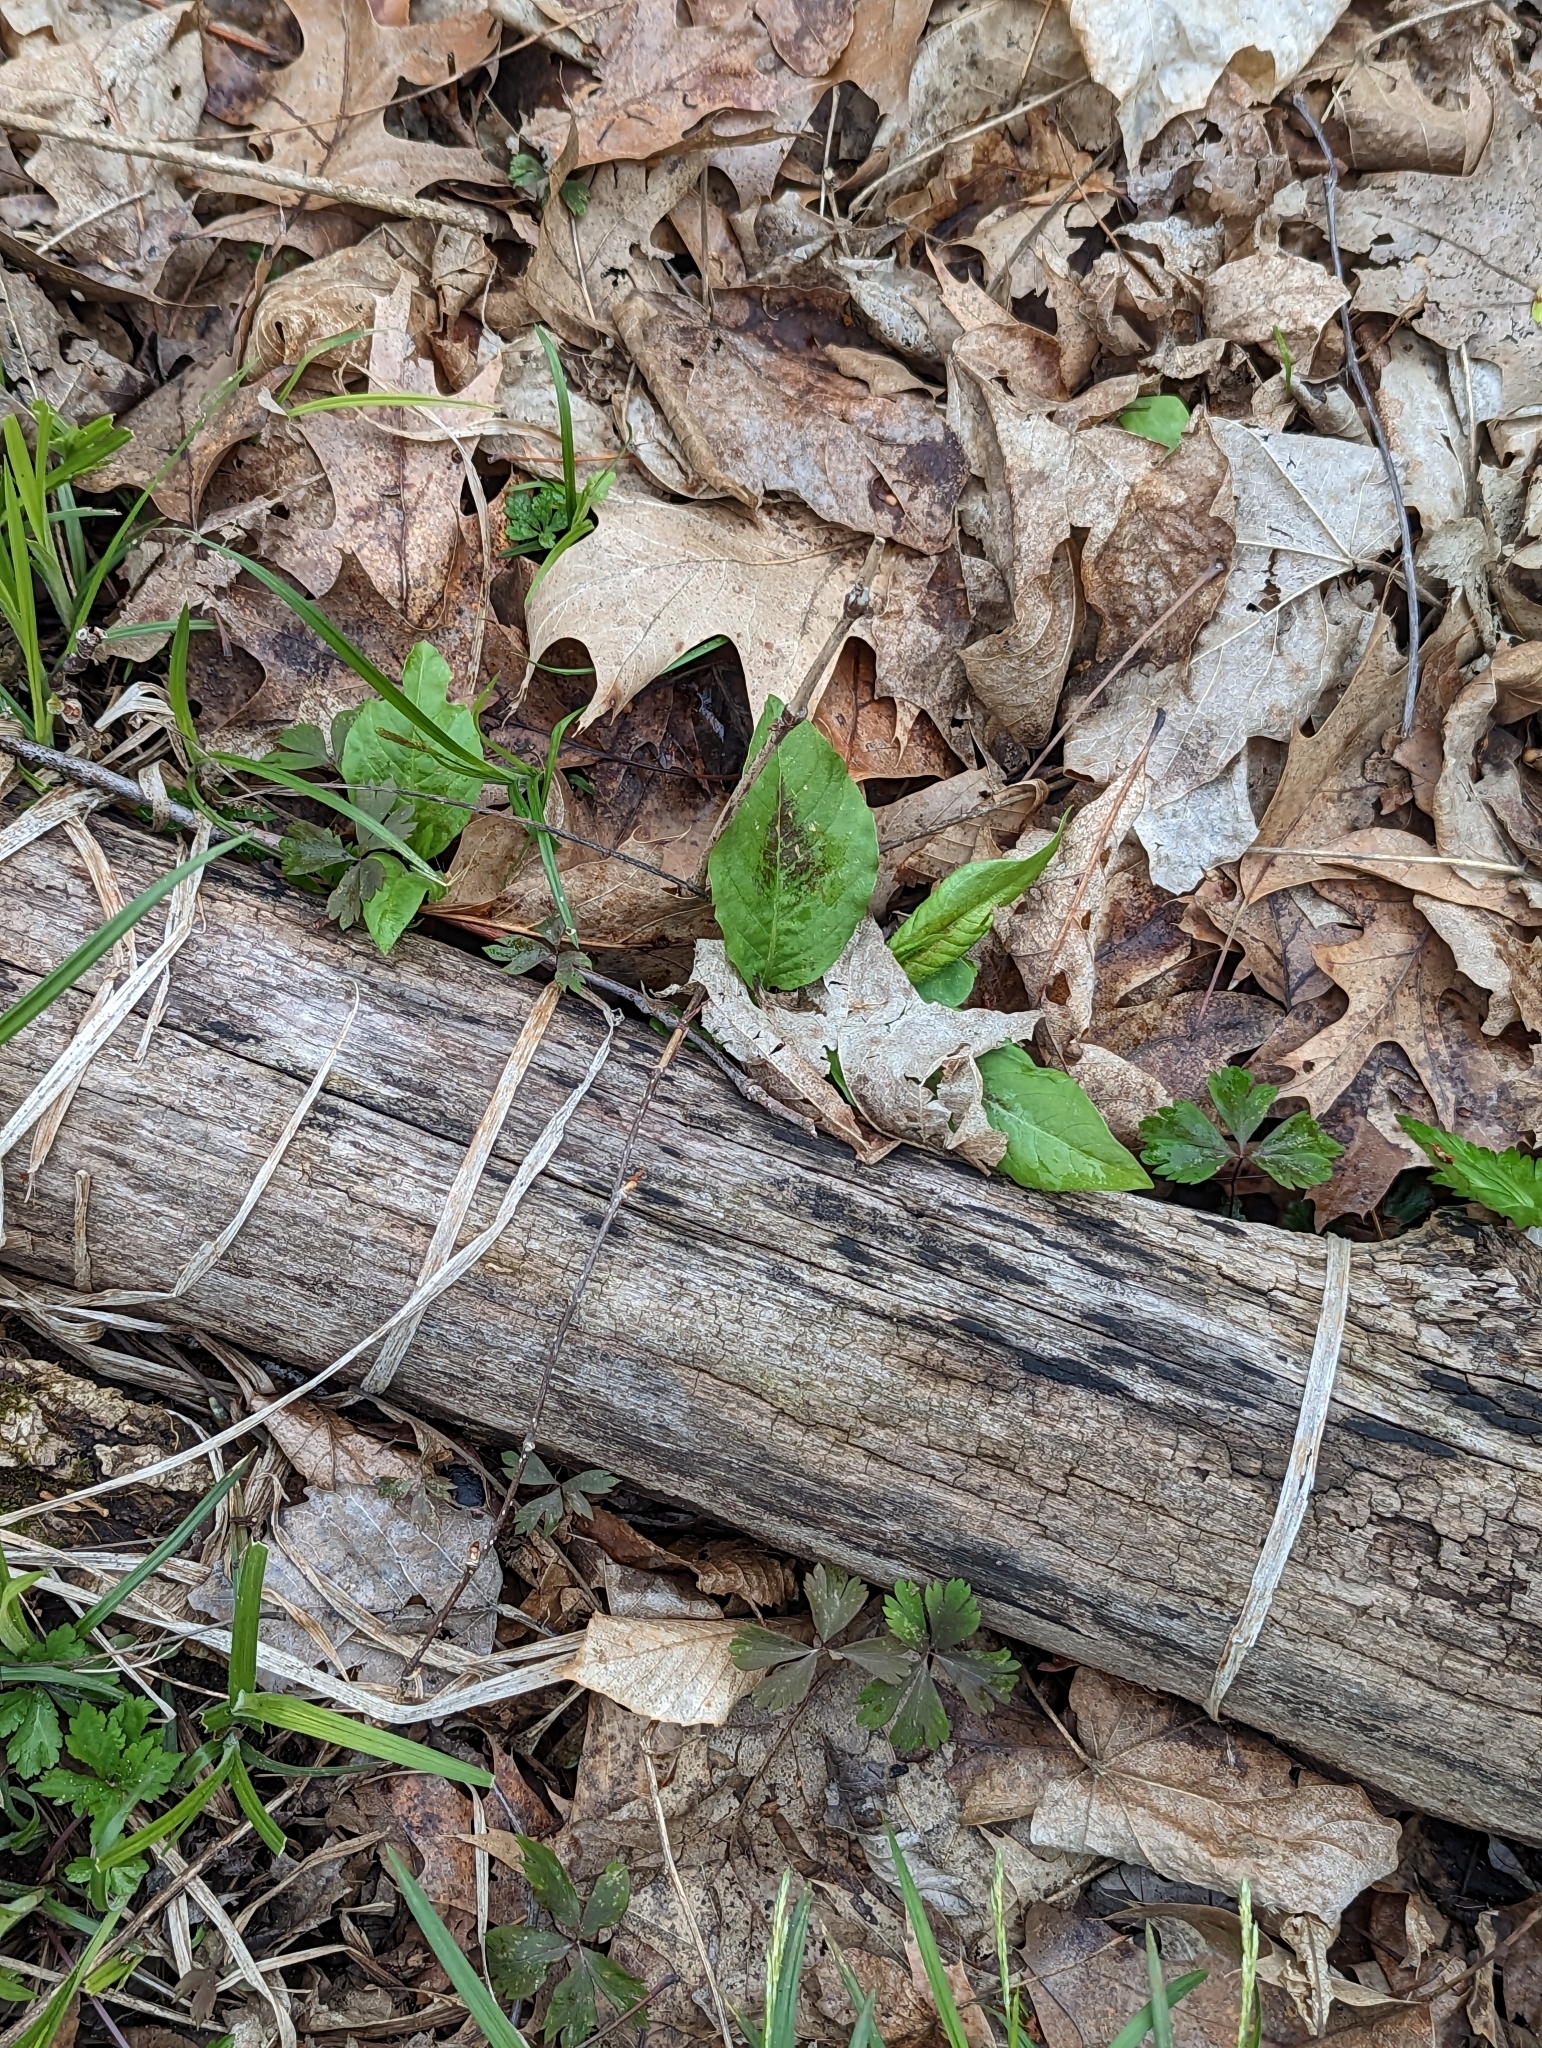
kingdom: Plantae
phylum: Tracheophyta
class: Magnoliopsida
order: Caryophyllales
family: Polygonaceae
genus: Persicaria
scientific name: Persicaria virginiana
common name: Jumpseed
